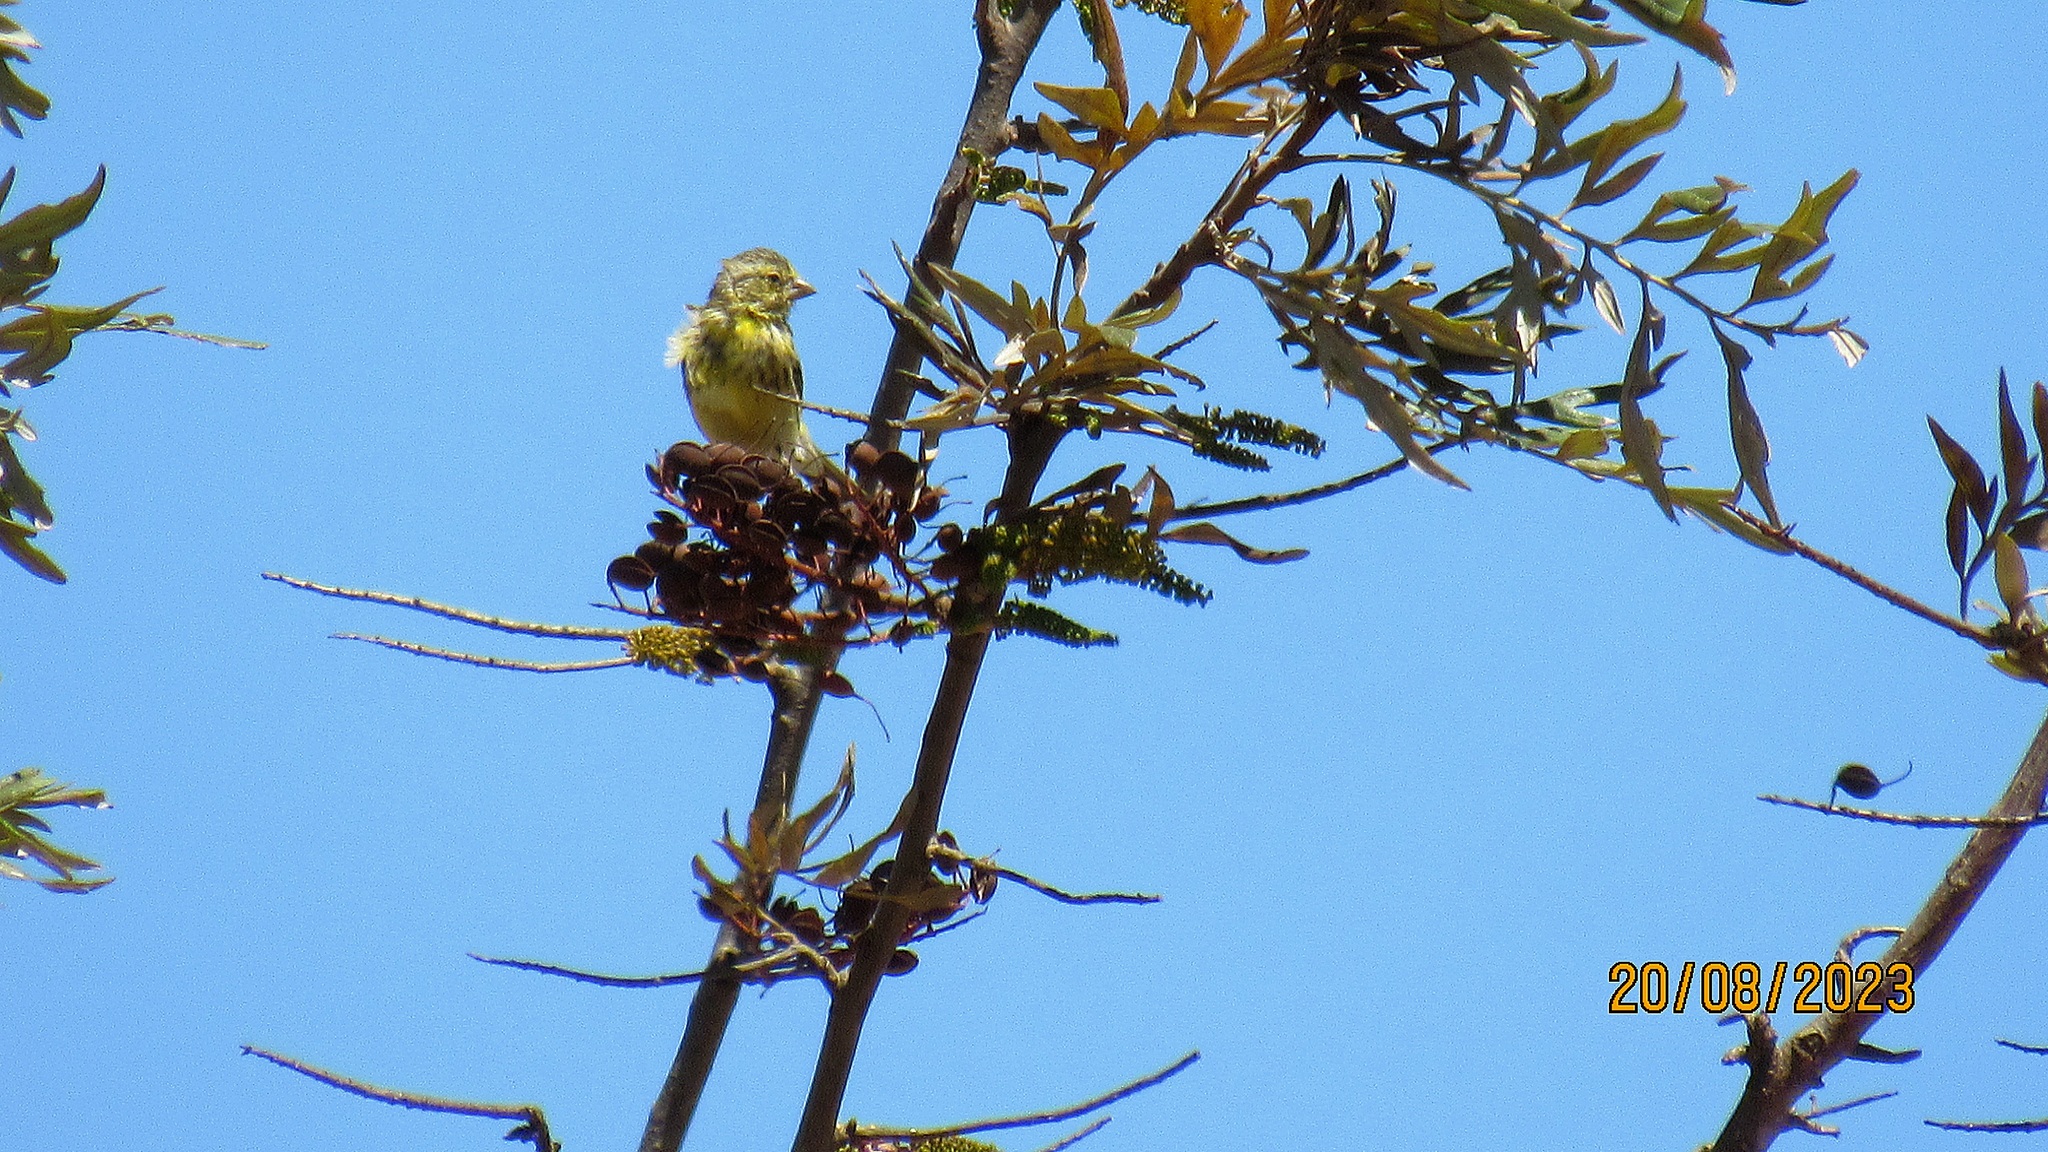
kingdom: Animalia
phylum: Chordata
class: Aves
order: Passeriformes
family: Fringillidae
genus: Crithagra
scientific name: Crithagra dorsostriata
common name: White-bellied canary
